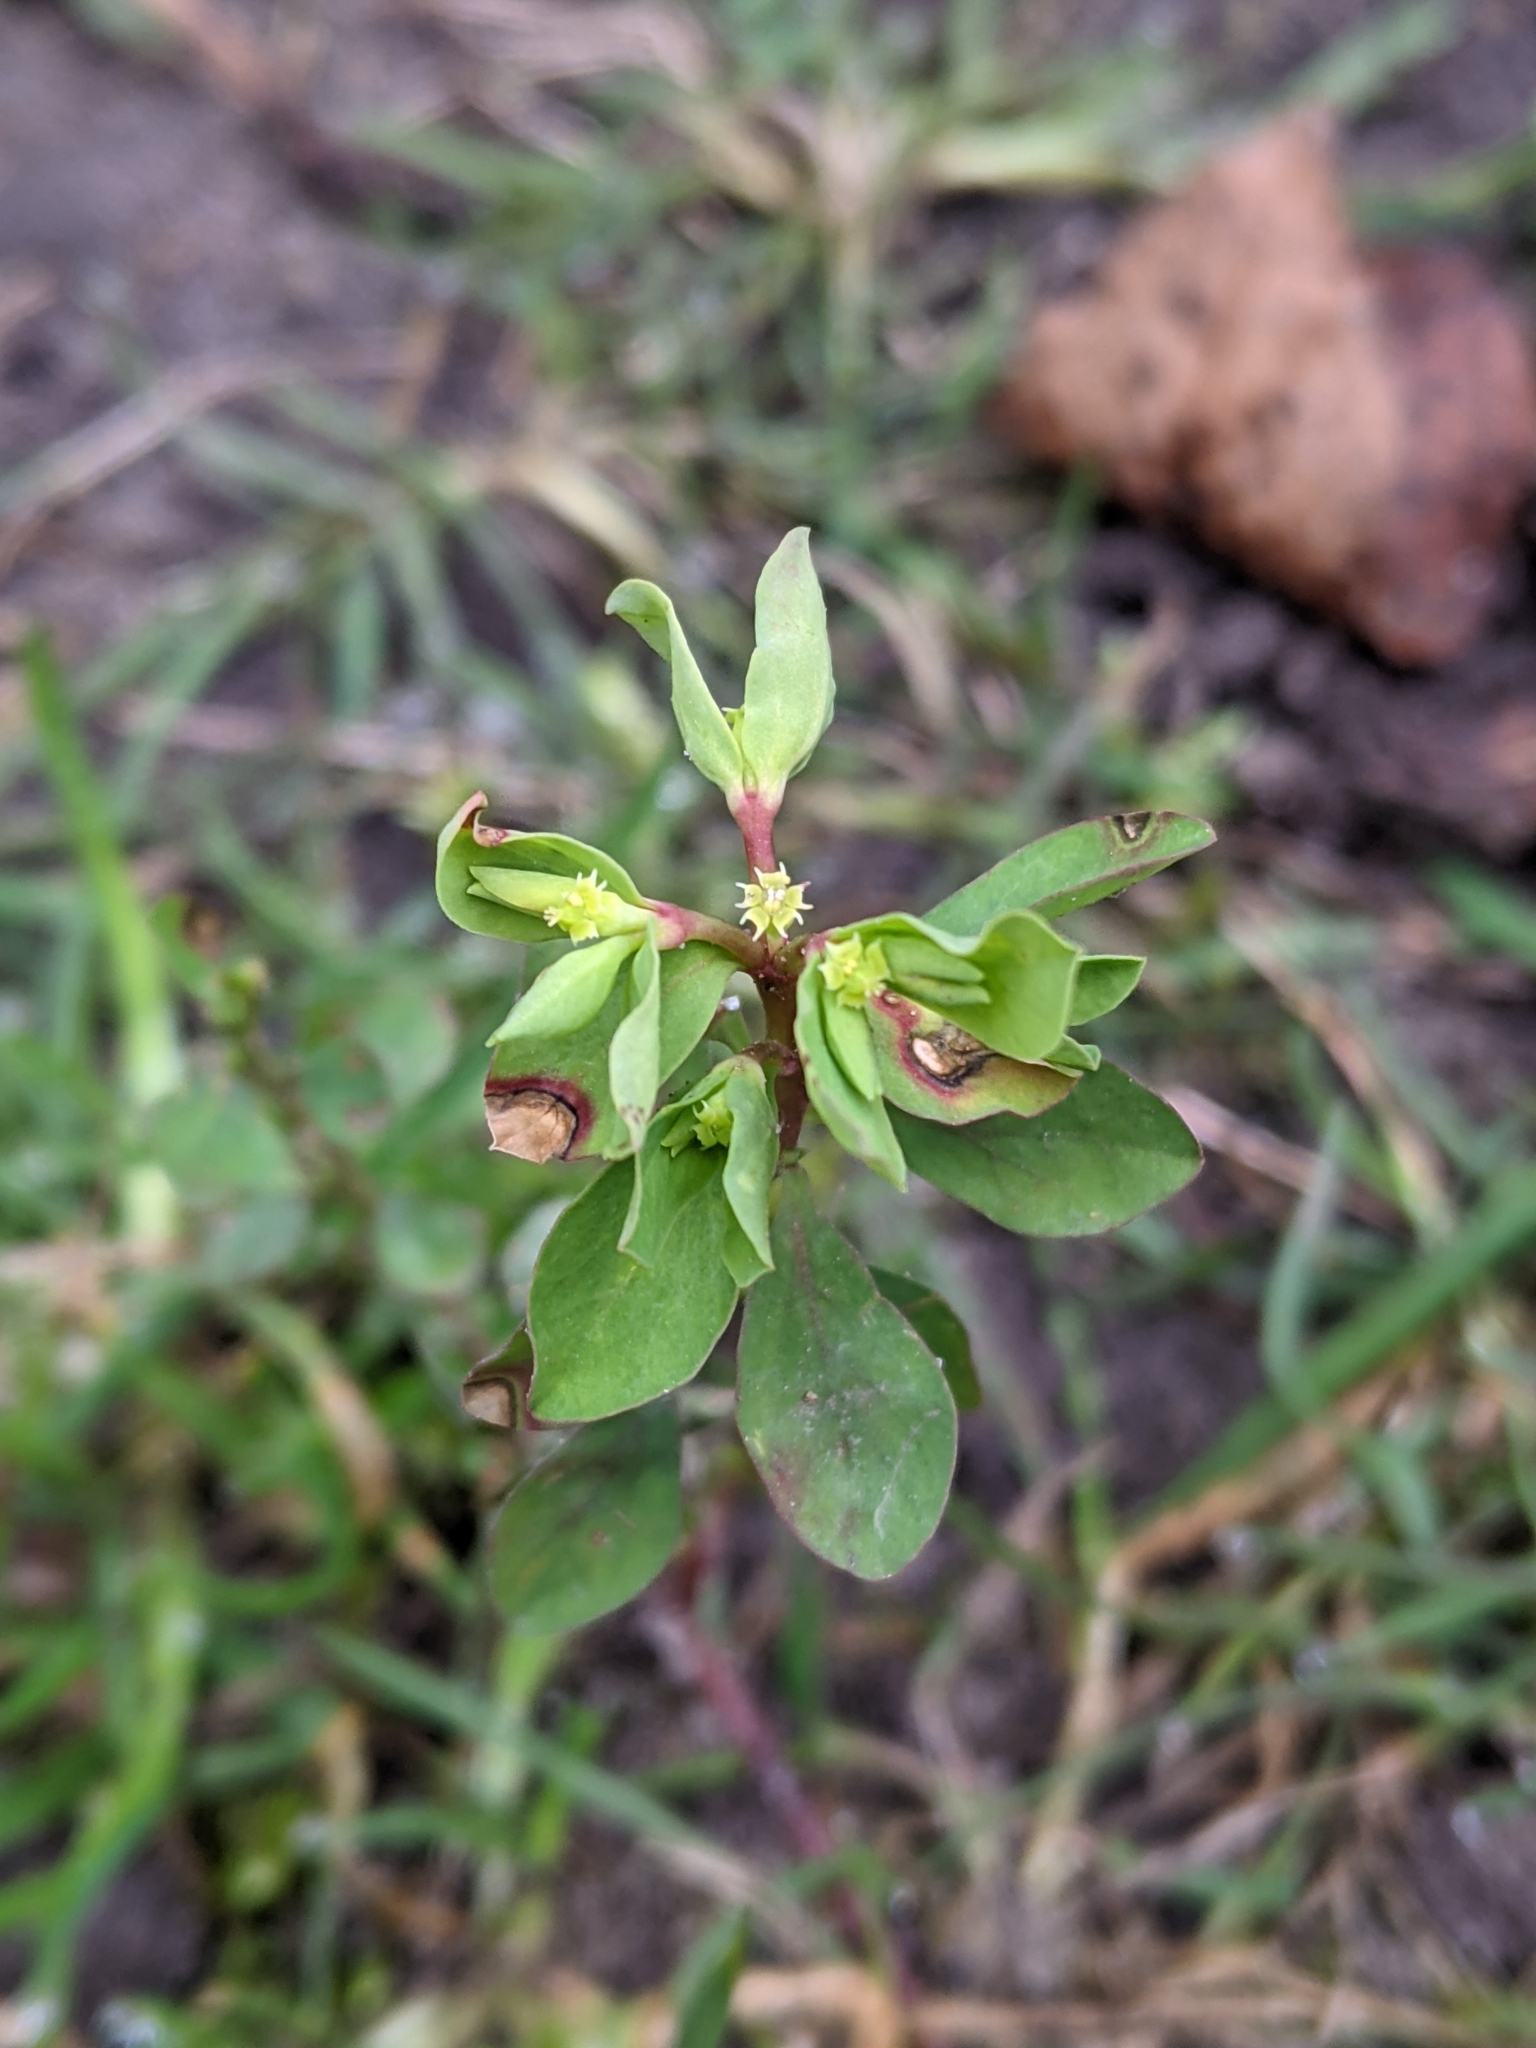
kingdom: Plantae
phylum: Tracheophyta
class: Magnoliopsida
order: Malpighiales
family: Euphorbiaceae
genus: Euphorbia
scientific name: Euphorbia peplus
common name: Petty spurge
